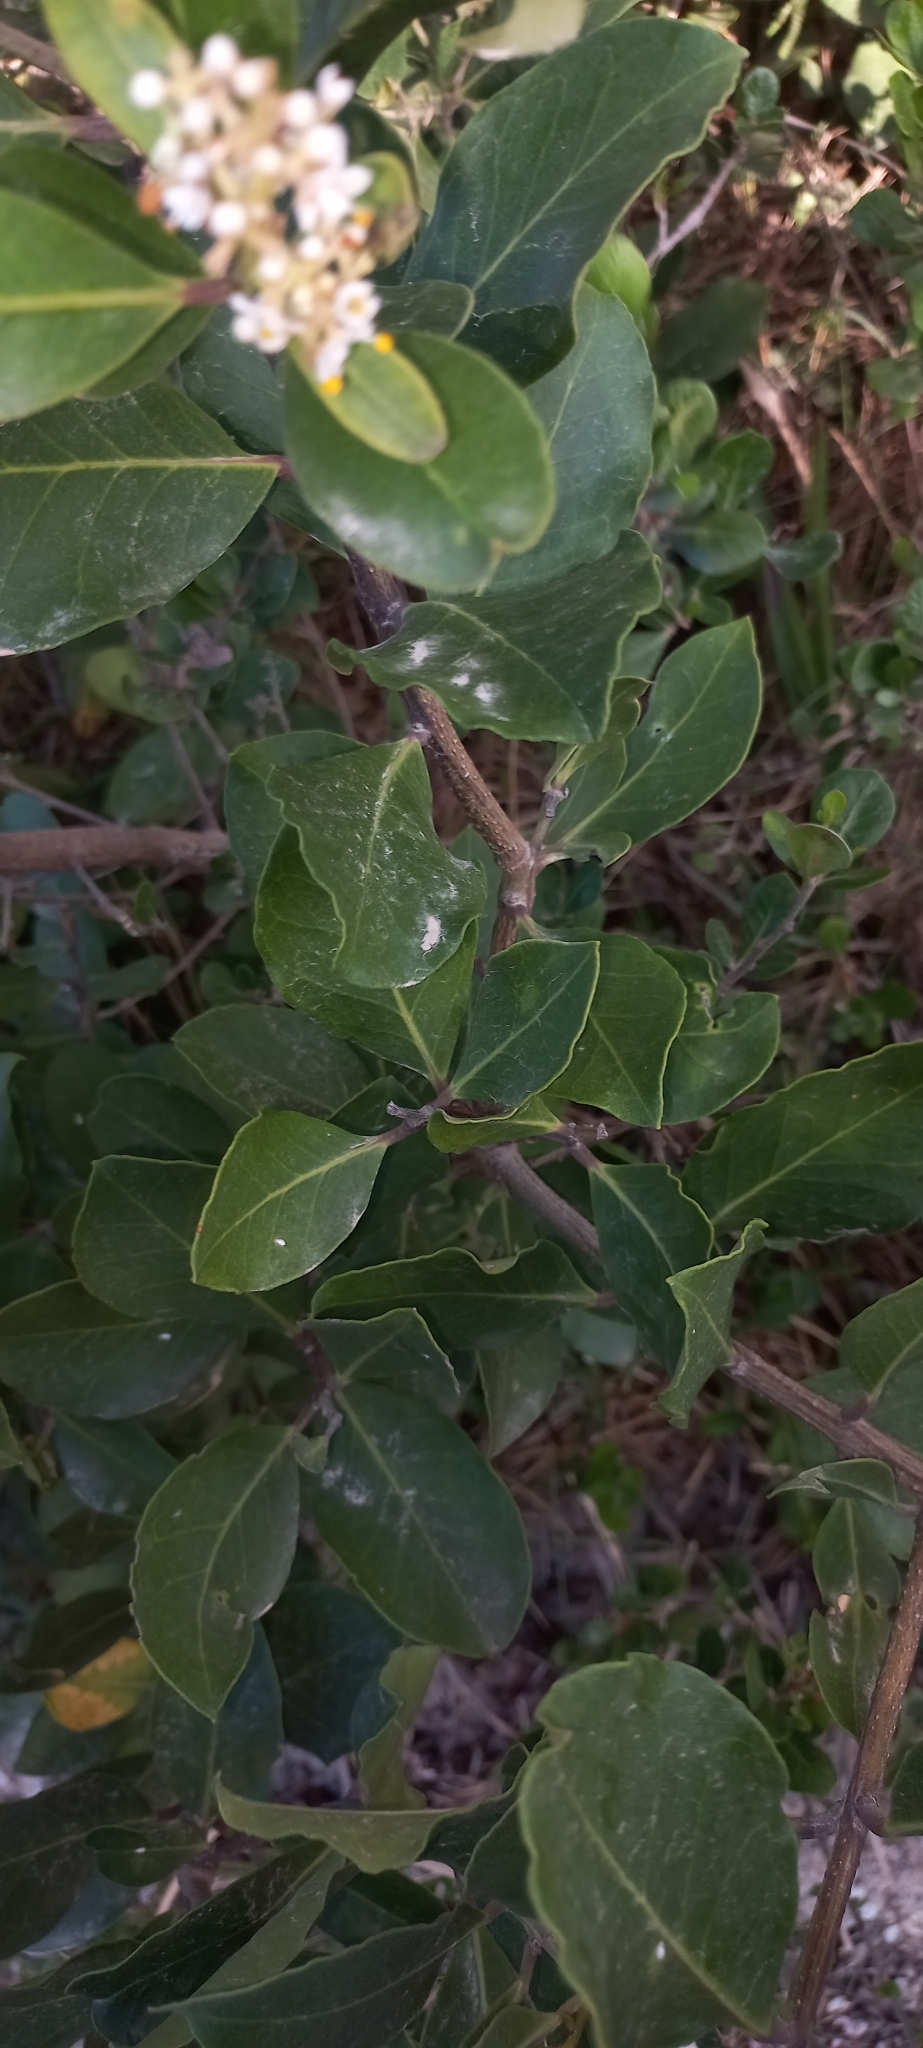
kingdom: Plantae
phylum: Tracheophyta
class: Magnoliopsida
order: Lamiales
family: Oleaceae
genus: Olea
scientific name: Olea capensis
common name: Black ironwood
